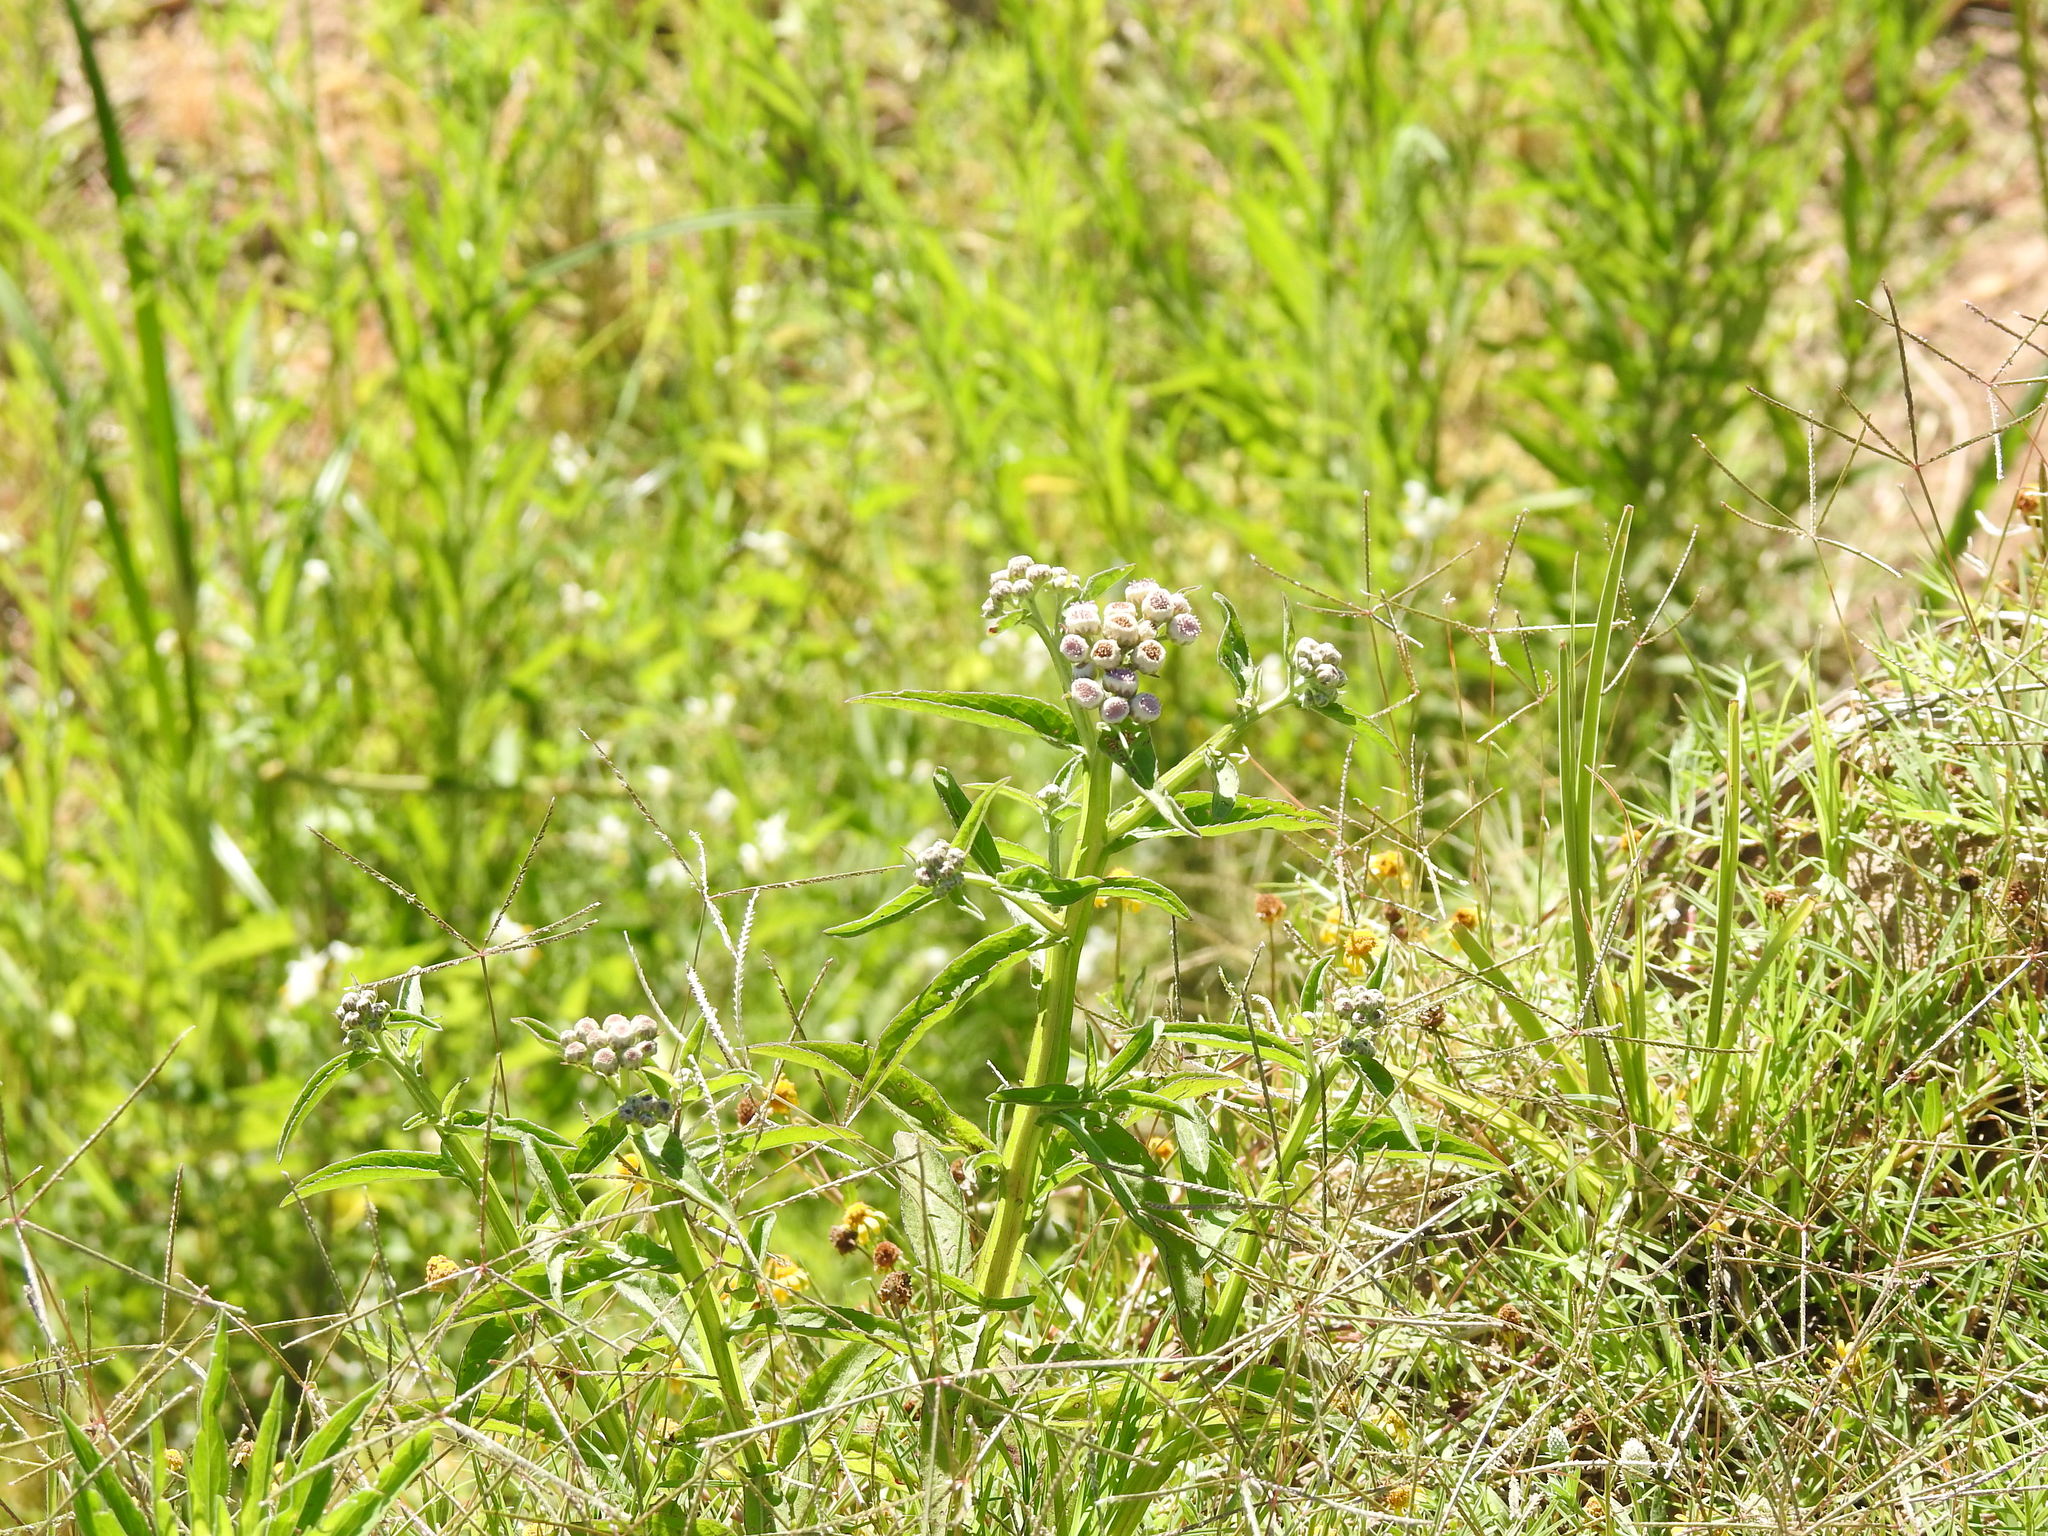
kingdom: Plantae
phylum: Tracheophyta
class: Magnoliopsida
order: Asterales
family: Asteraceae
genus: Pluchea
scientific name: Pluchea sagittalis
